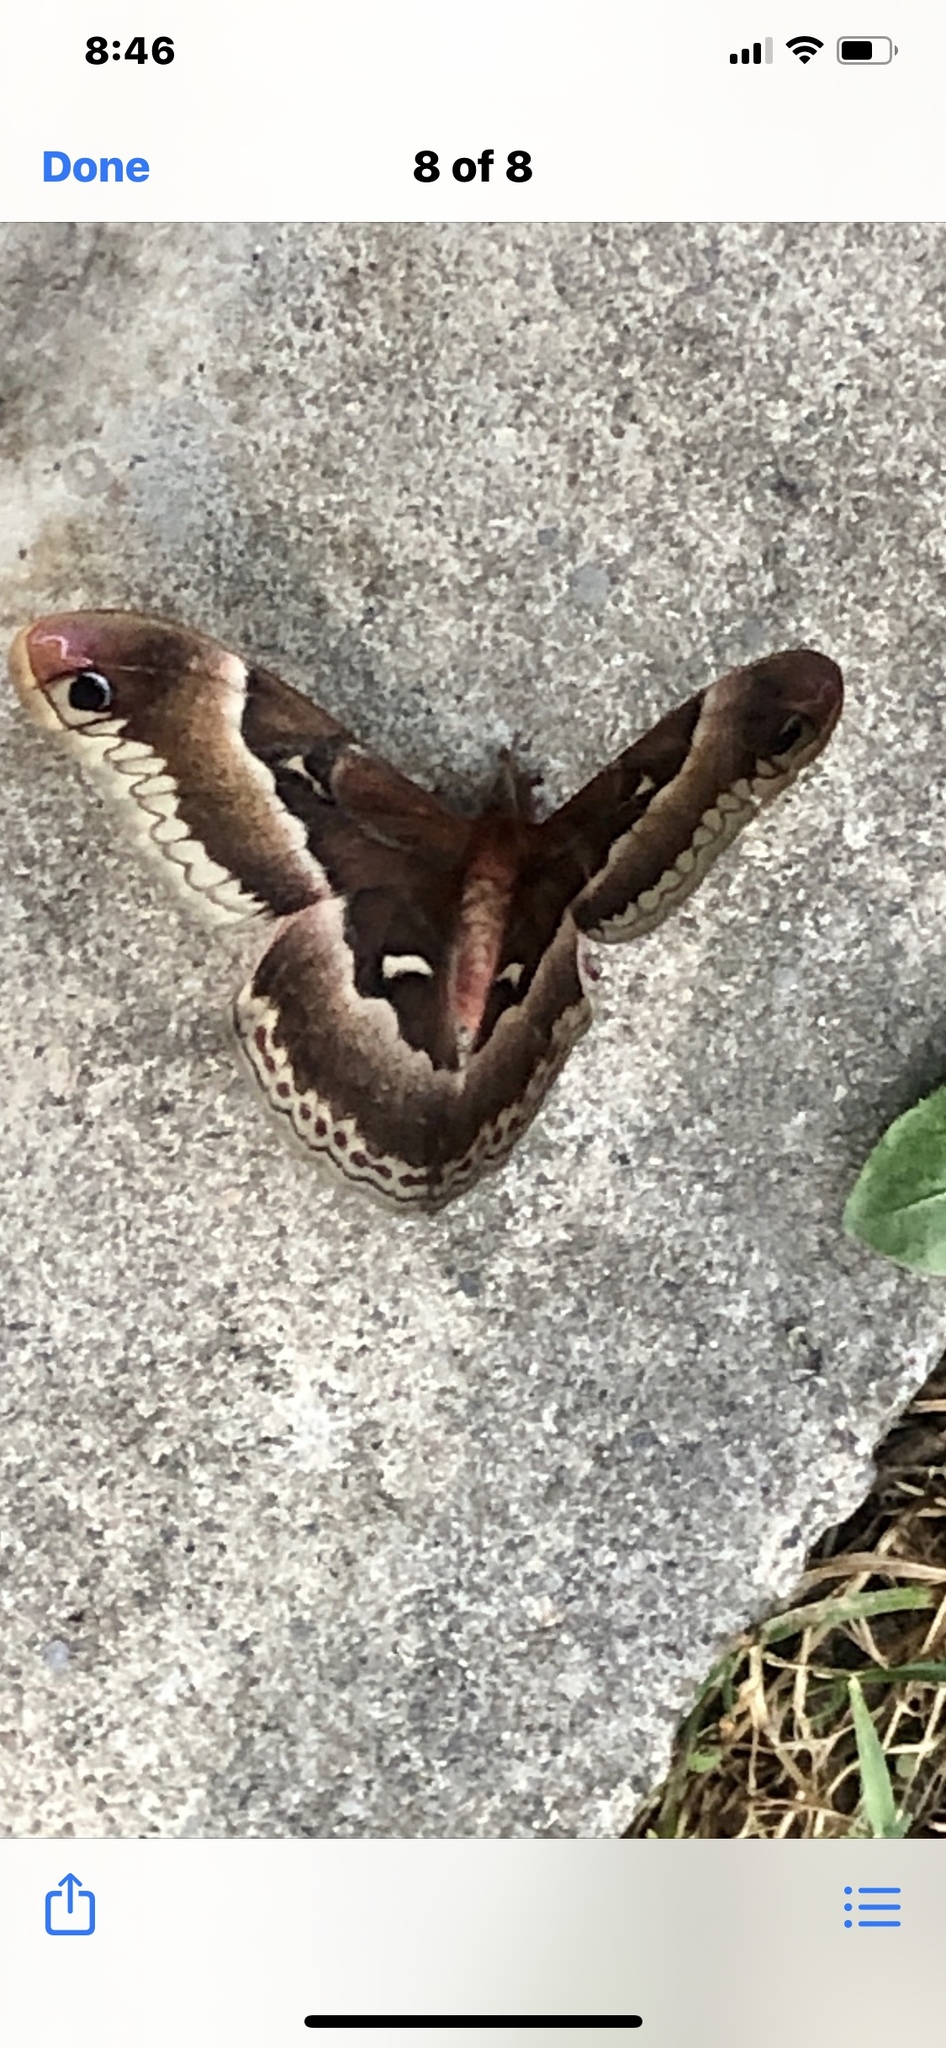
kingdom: Animalia
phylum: Arthropoda
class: Insecta
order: Lepidoptera
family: Saturniidae
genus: Callosamia
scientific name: Callosamia promethea
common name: Promethea silkmoth
